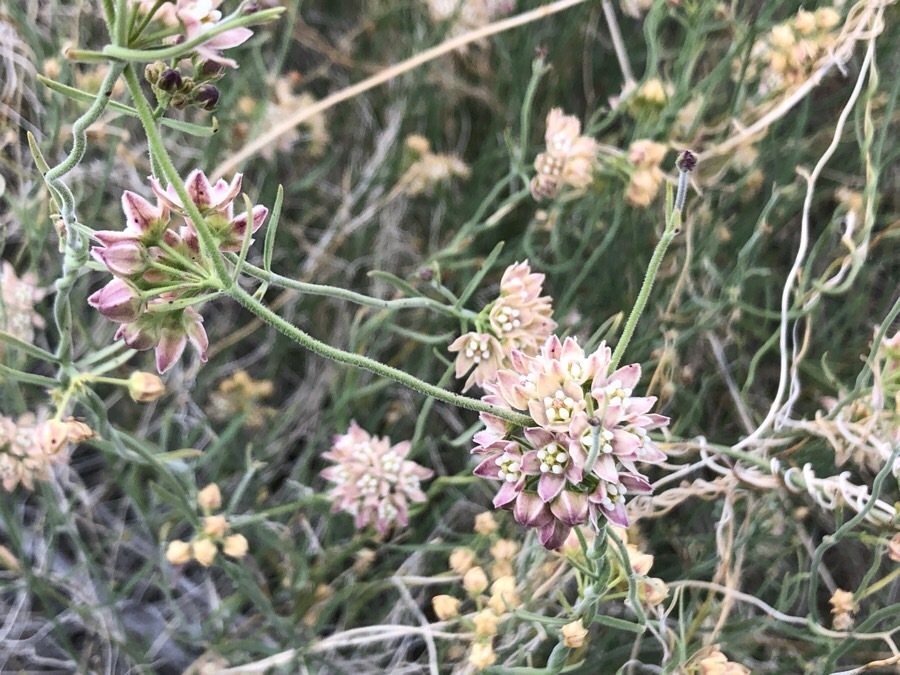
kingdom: Plantae
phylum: Tracheophyta
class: Magnoliopsida
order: Gentianales
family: Apocynaceae
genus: Funastrum
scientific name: Funastrum hirtellum
